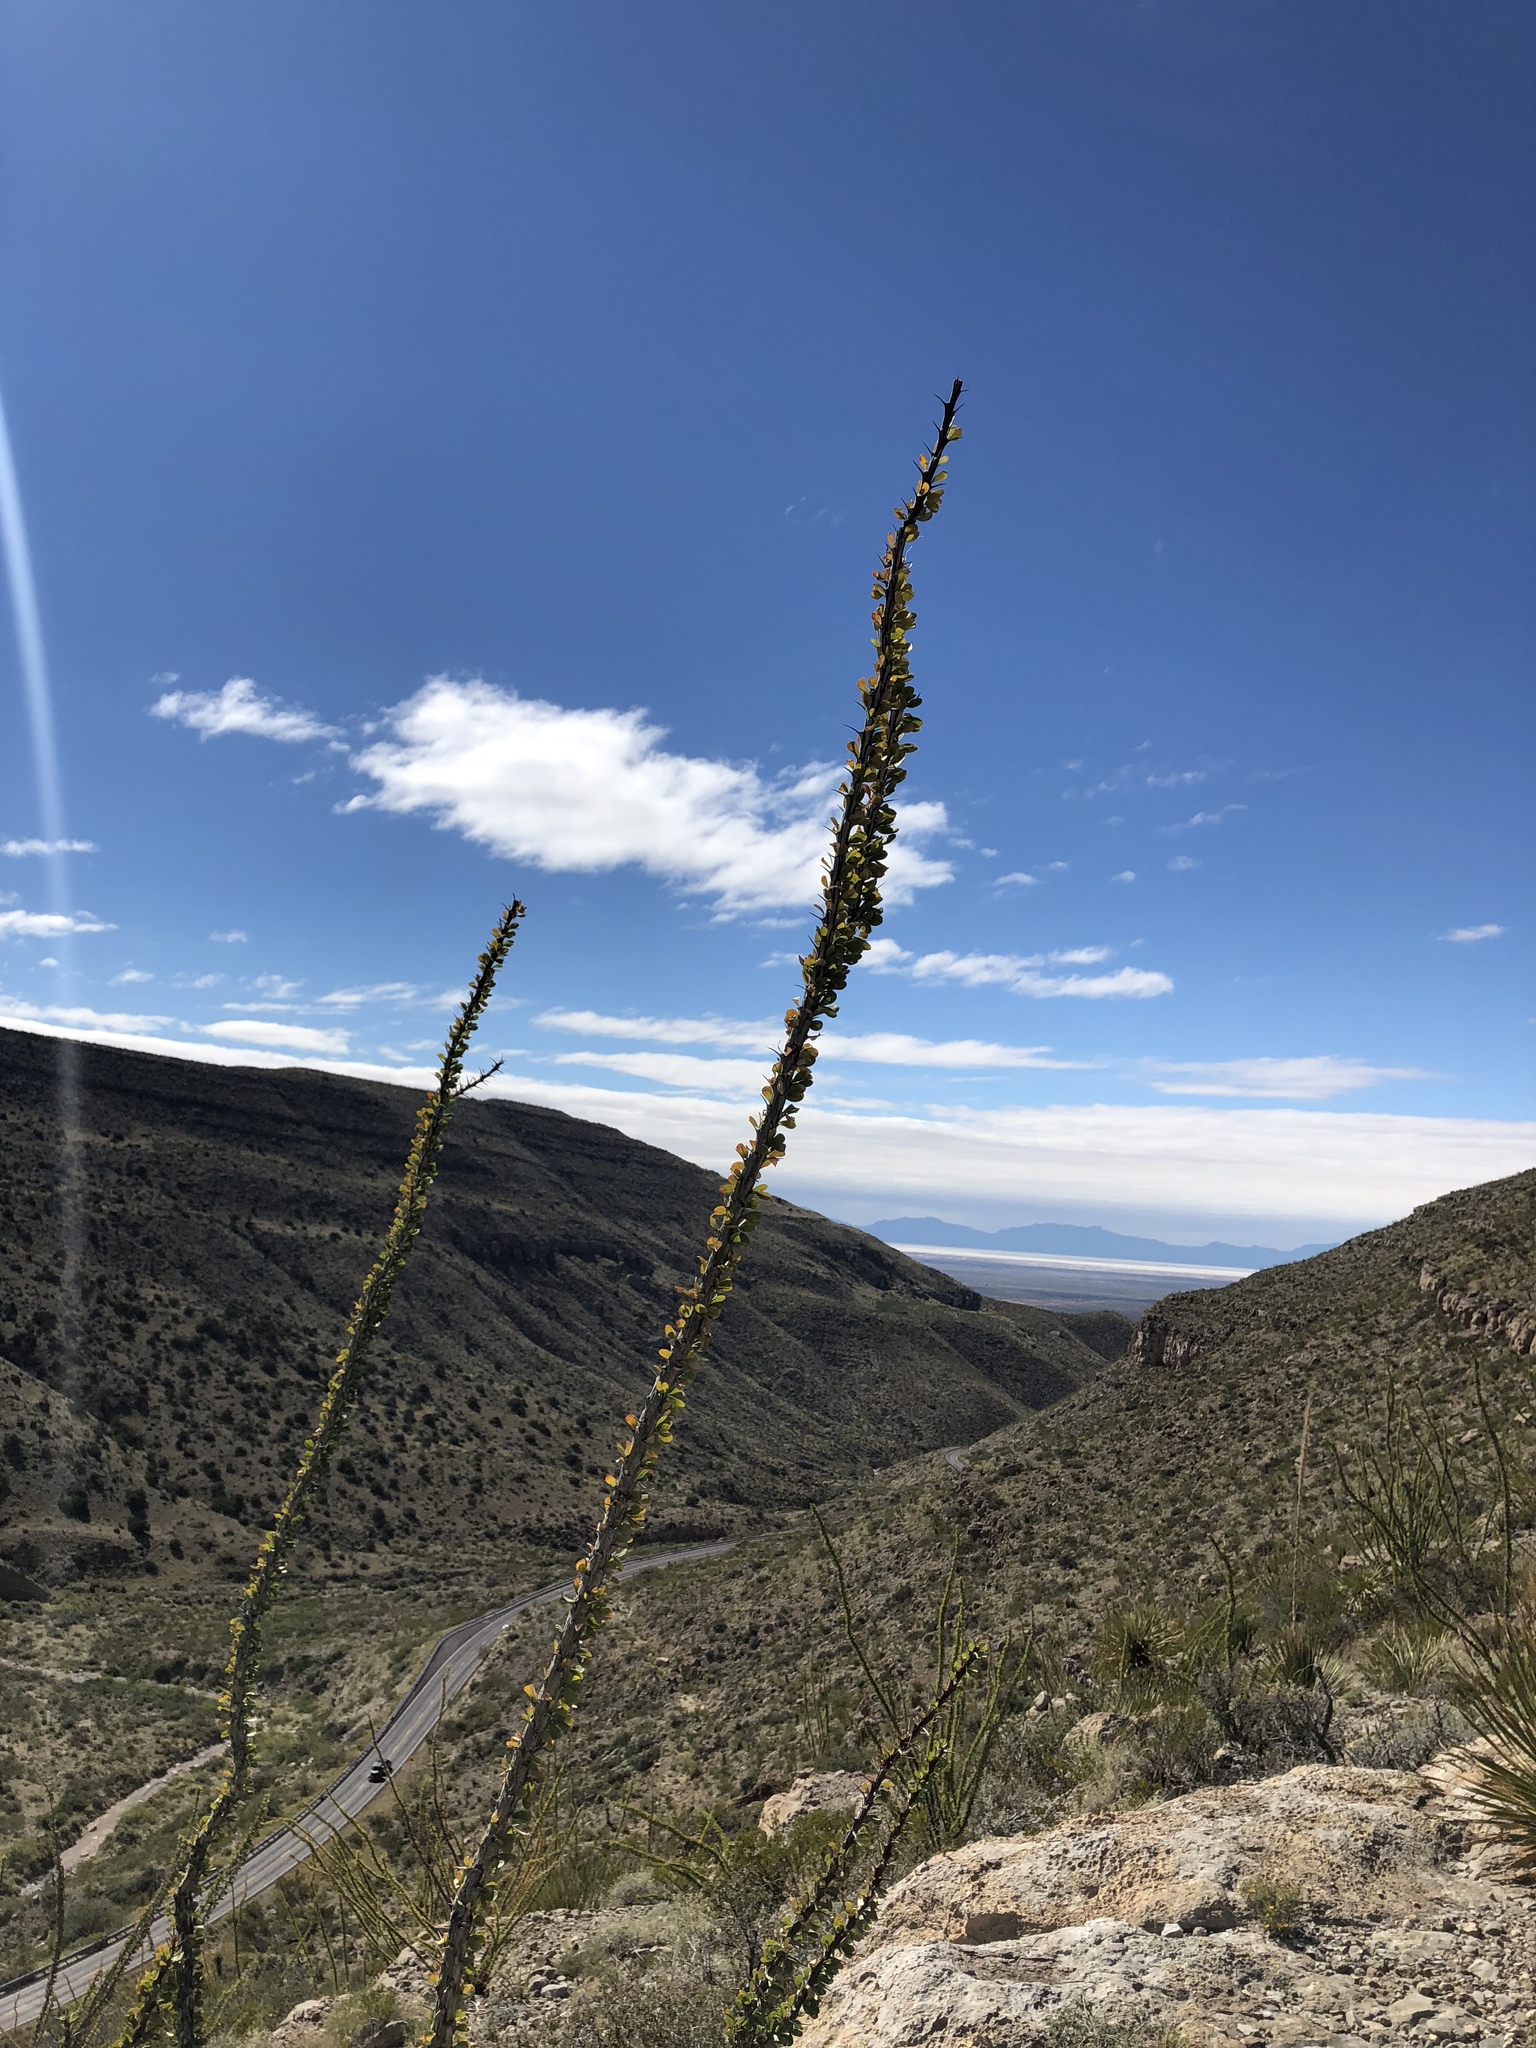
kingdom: Plantae
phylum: Tracheophyta
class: Magnoliopsida
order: Ericales
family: Fouquieriaceae
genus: Fouquieria
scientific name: Fouquieria splendens
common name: Vine-cactus
